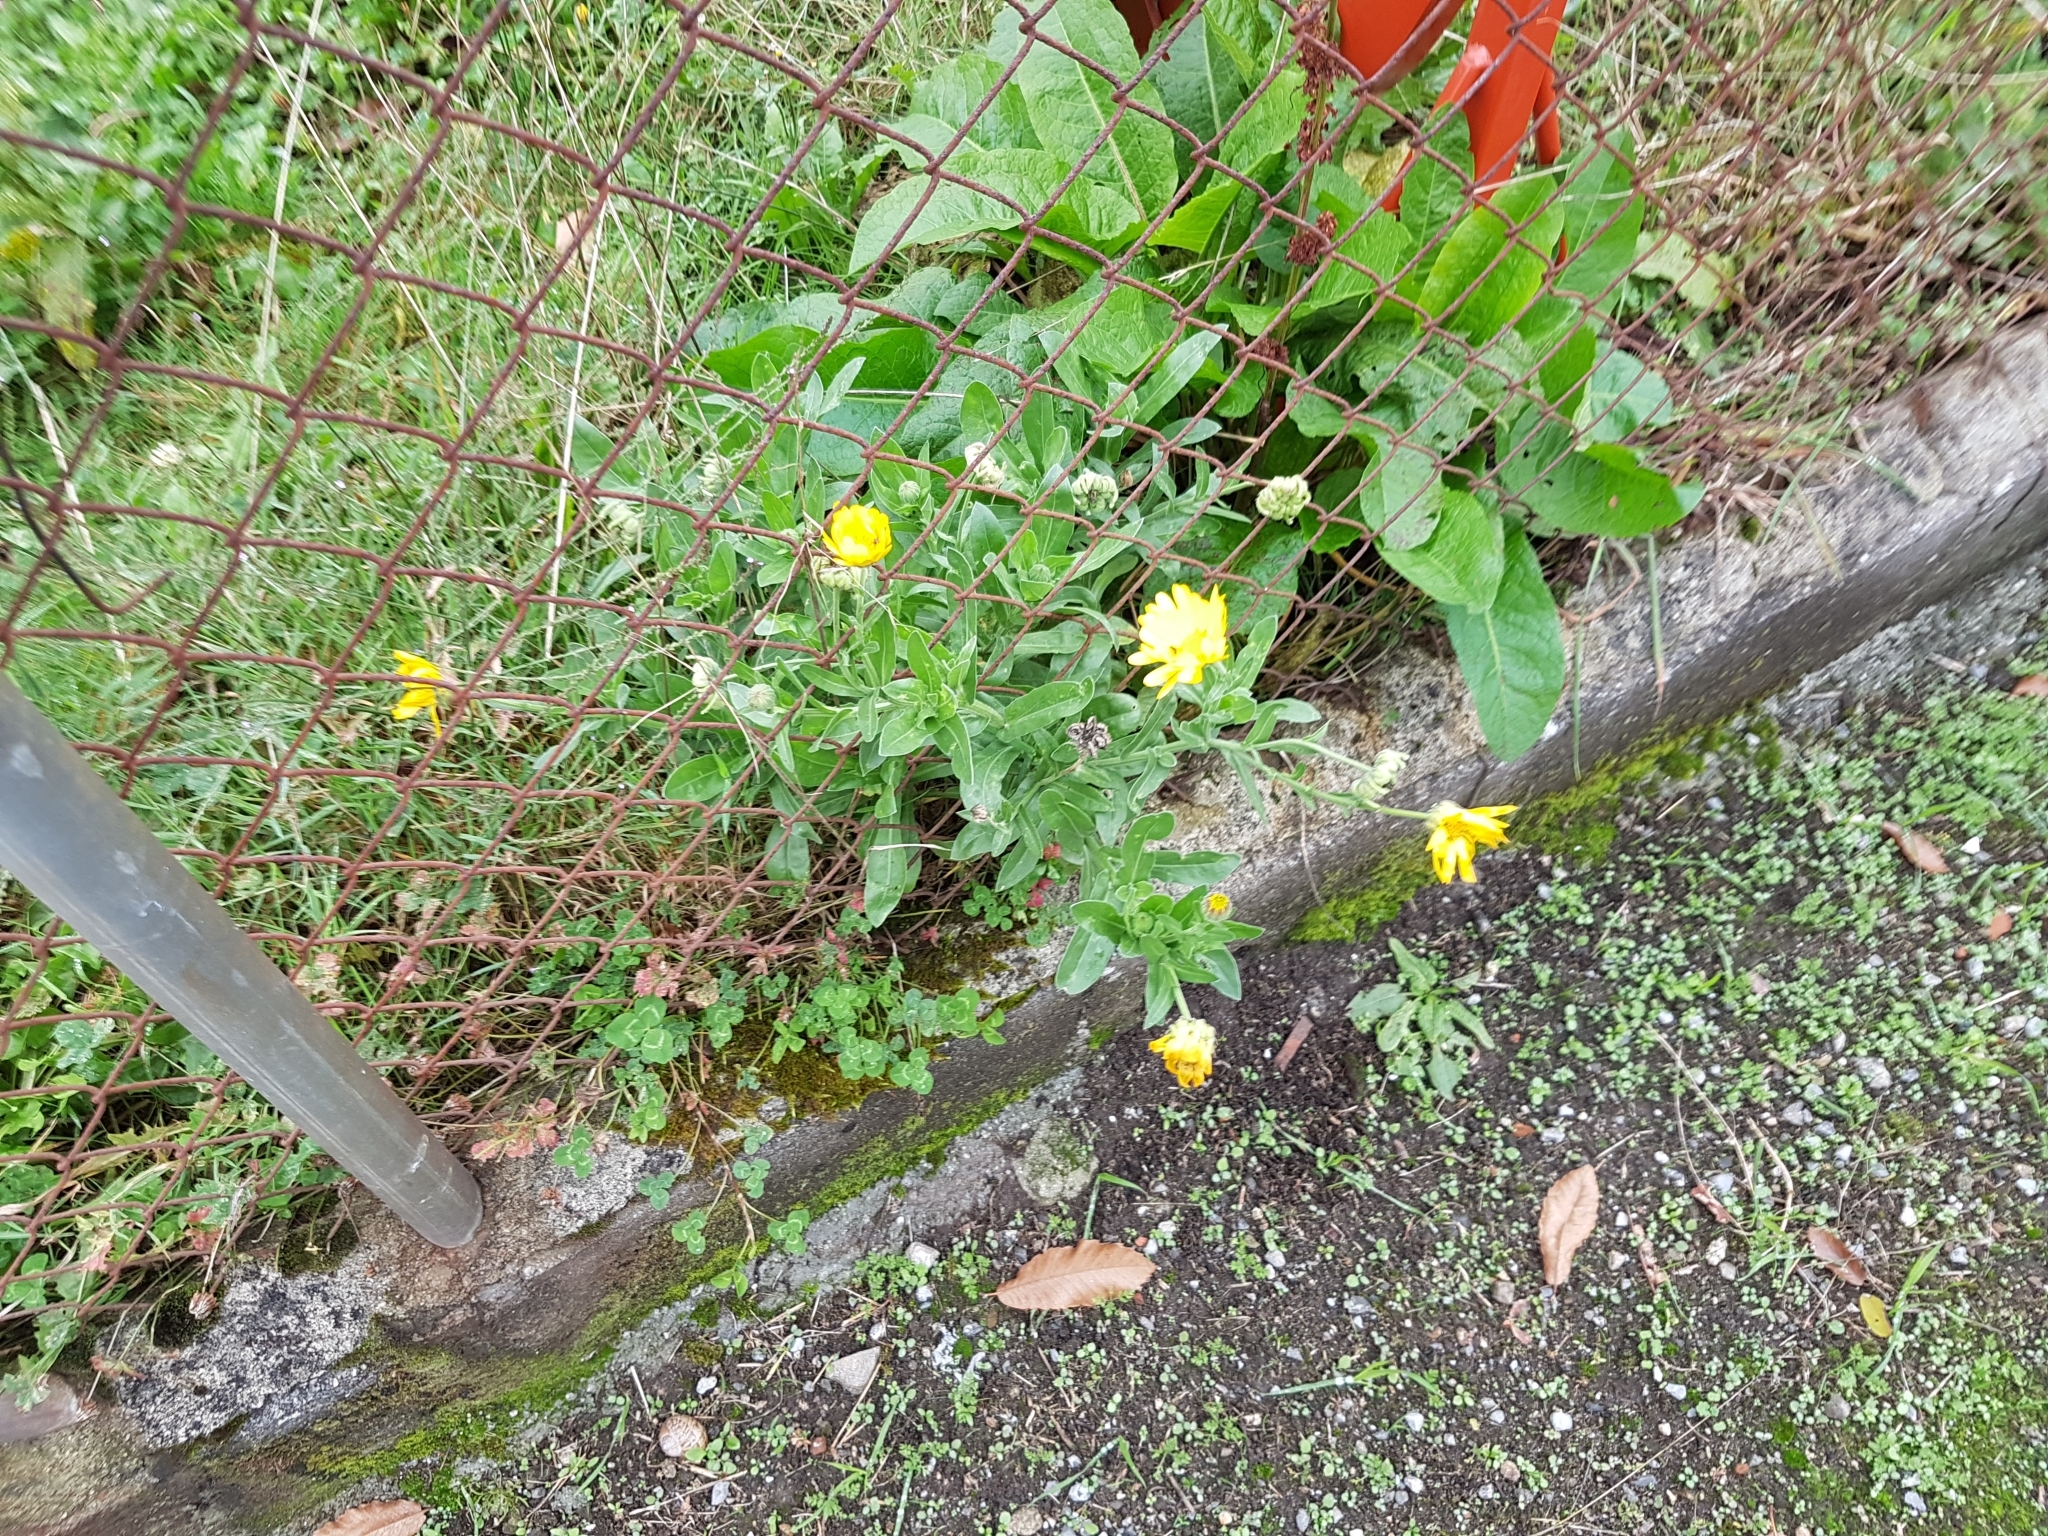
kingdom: Plantae
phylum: Tracheophyta
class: Magnoliopsida
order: Asterales
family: Asteraceae
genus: Calendula
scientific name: Calendula officinalis
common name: Pot marigold
